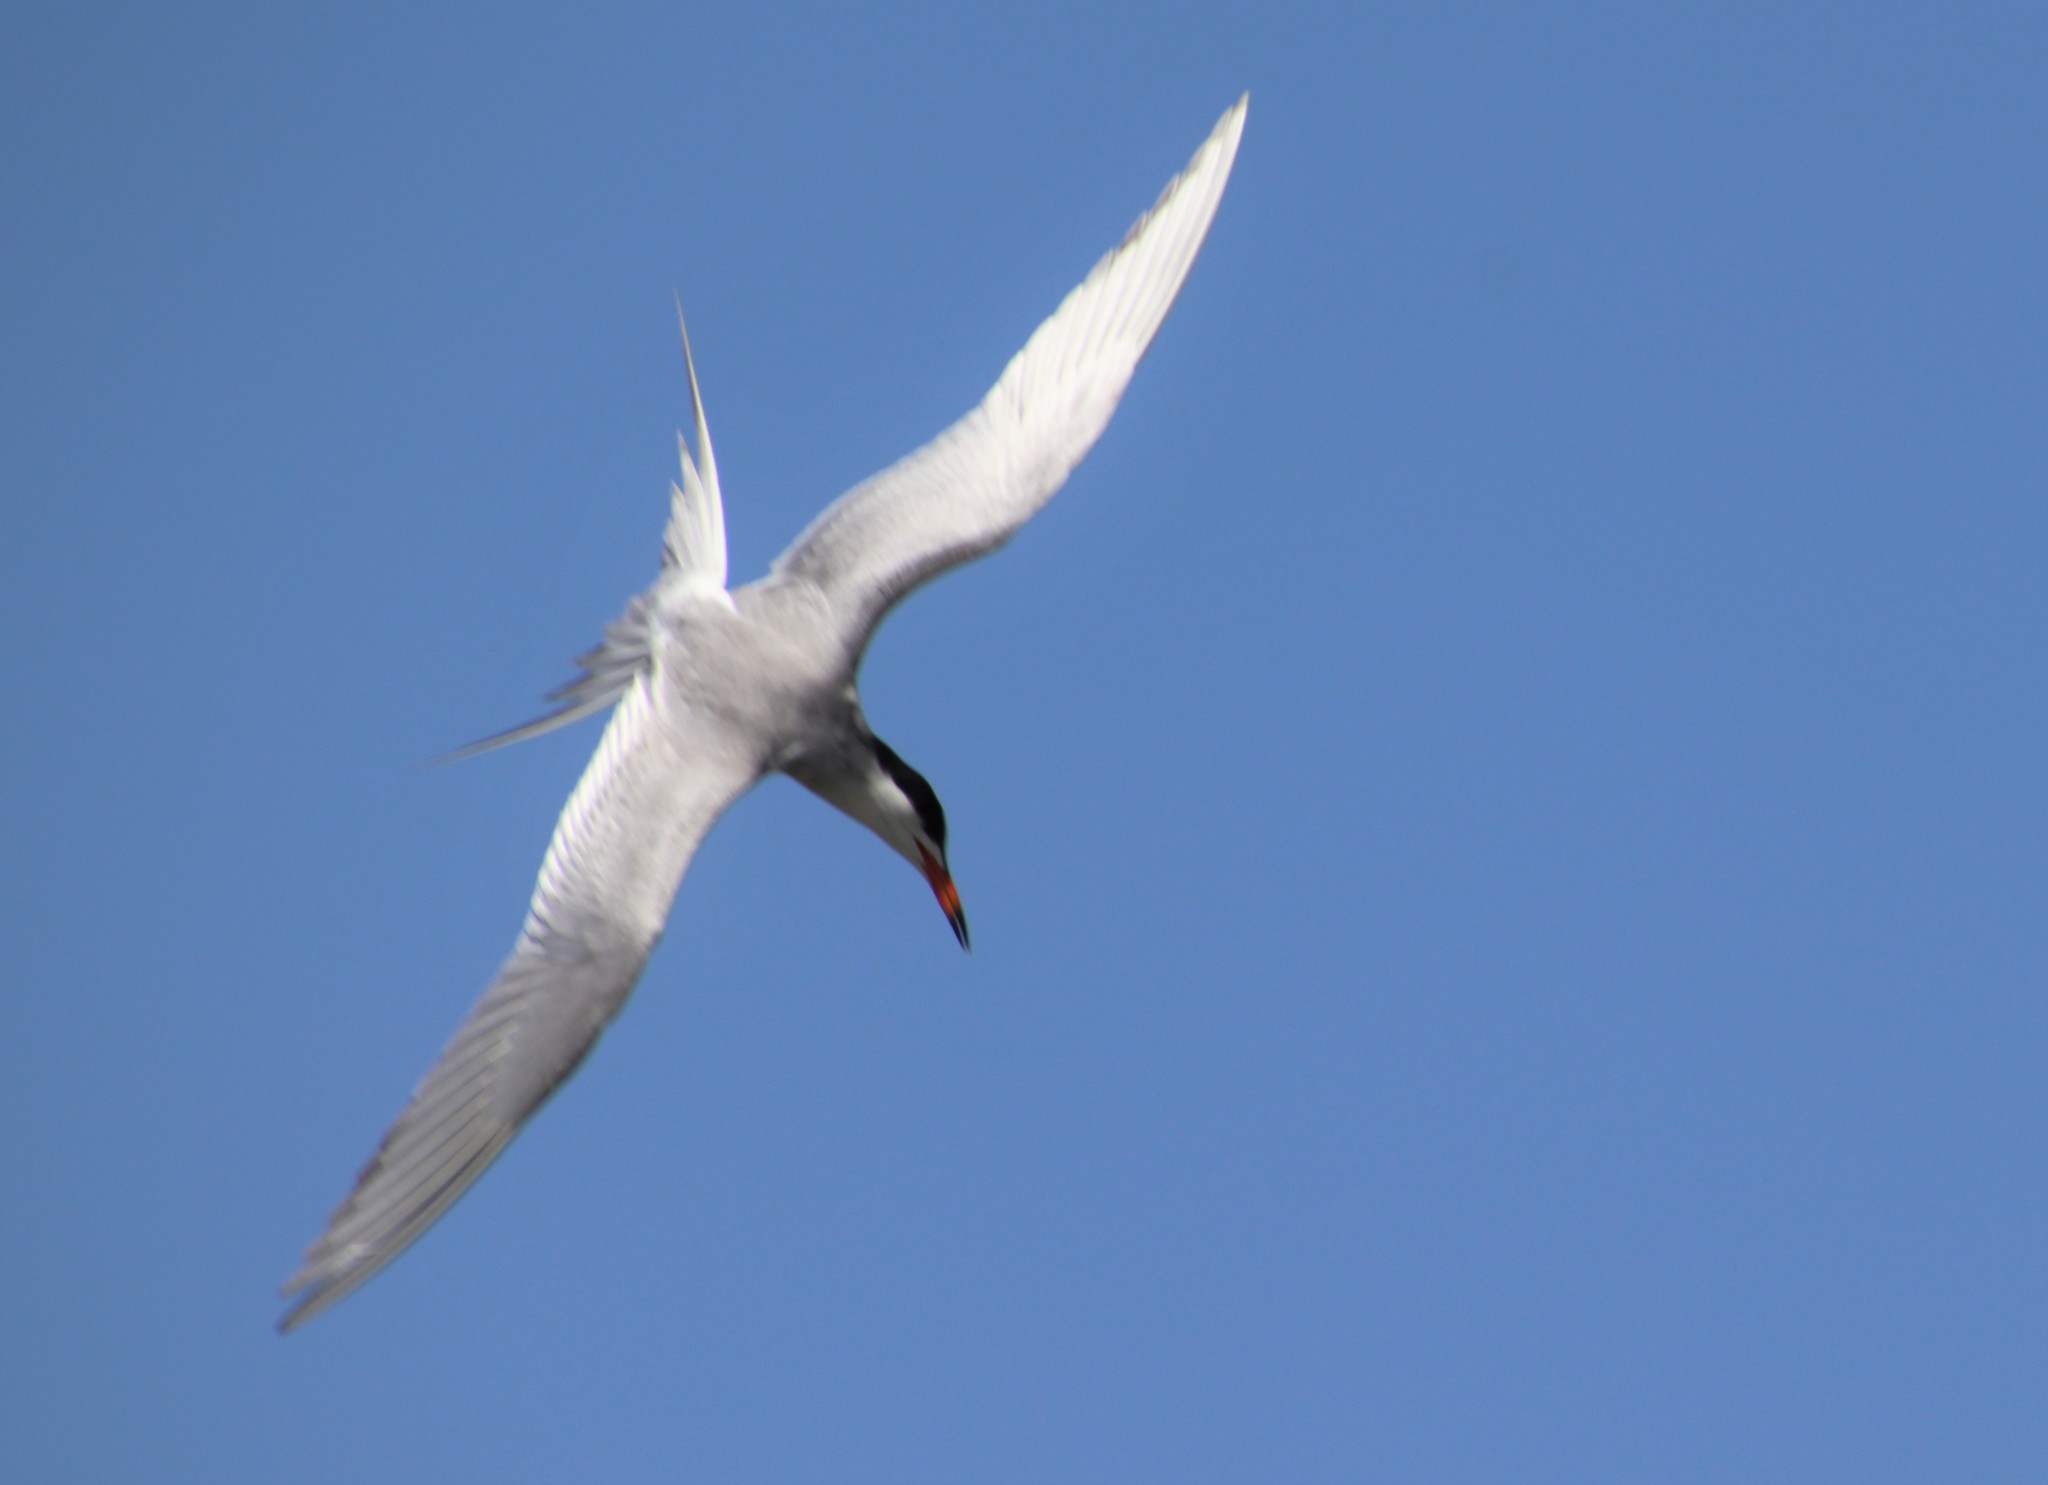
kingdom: Animalia
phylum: Chordata
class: Aves
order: Charadriiformes
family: Laridae
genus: Sterna
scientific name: Sterna forsteri
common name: Forster's tern
